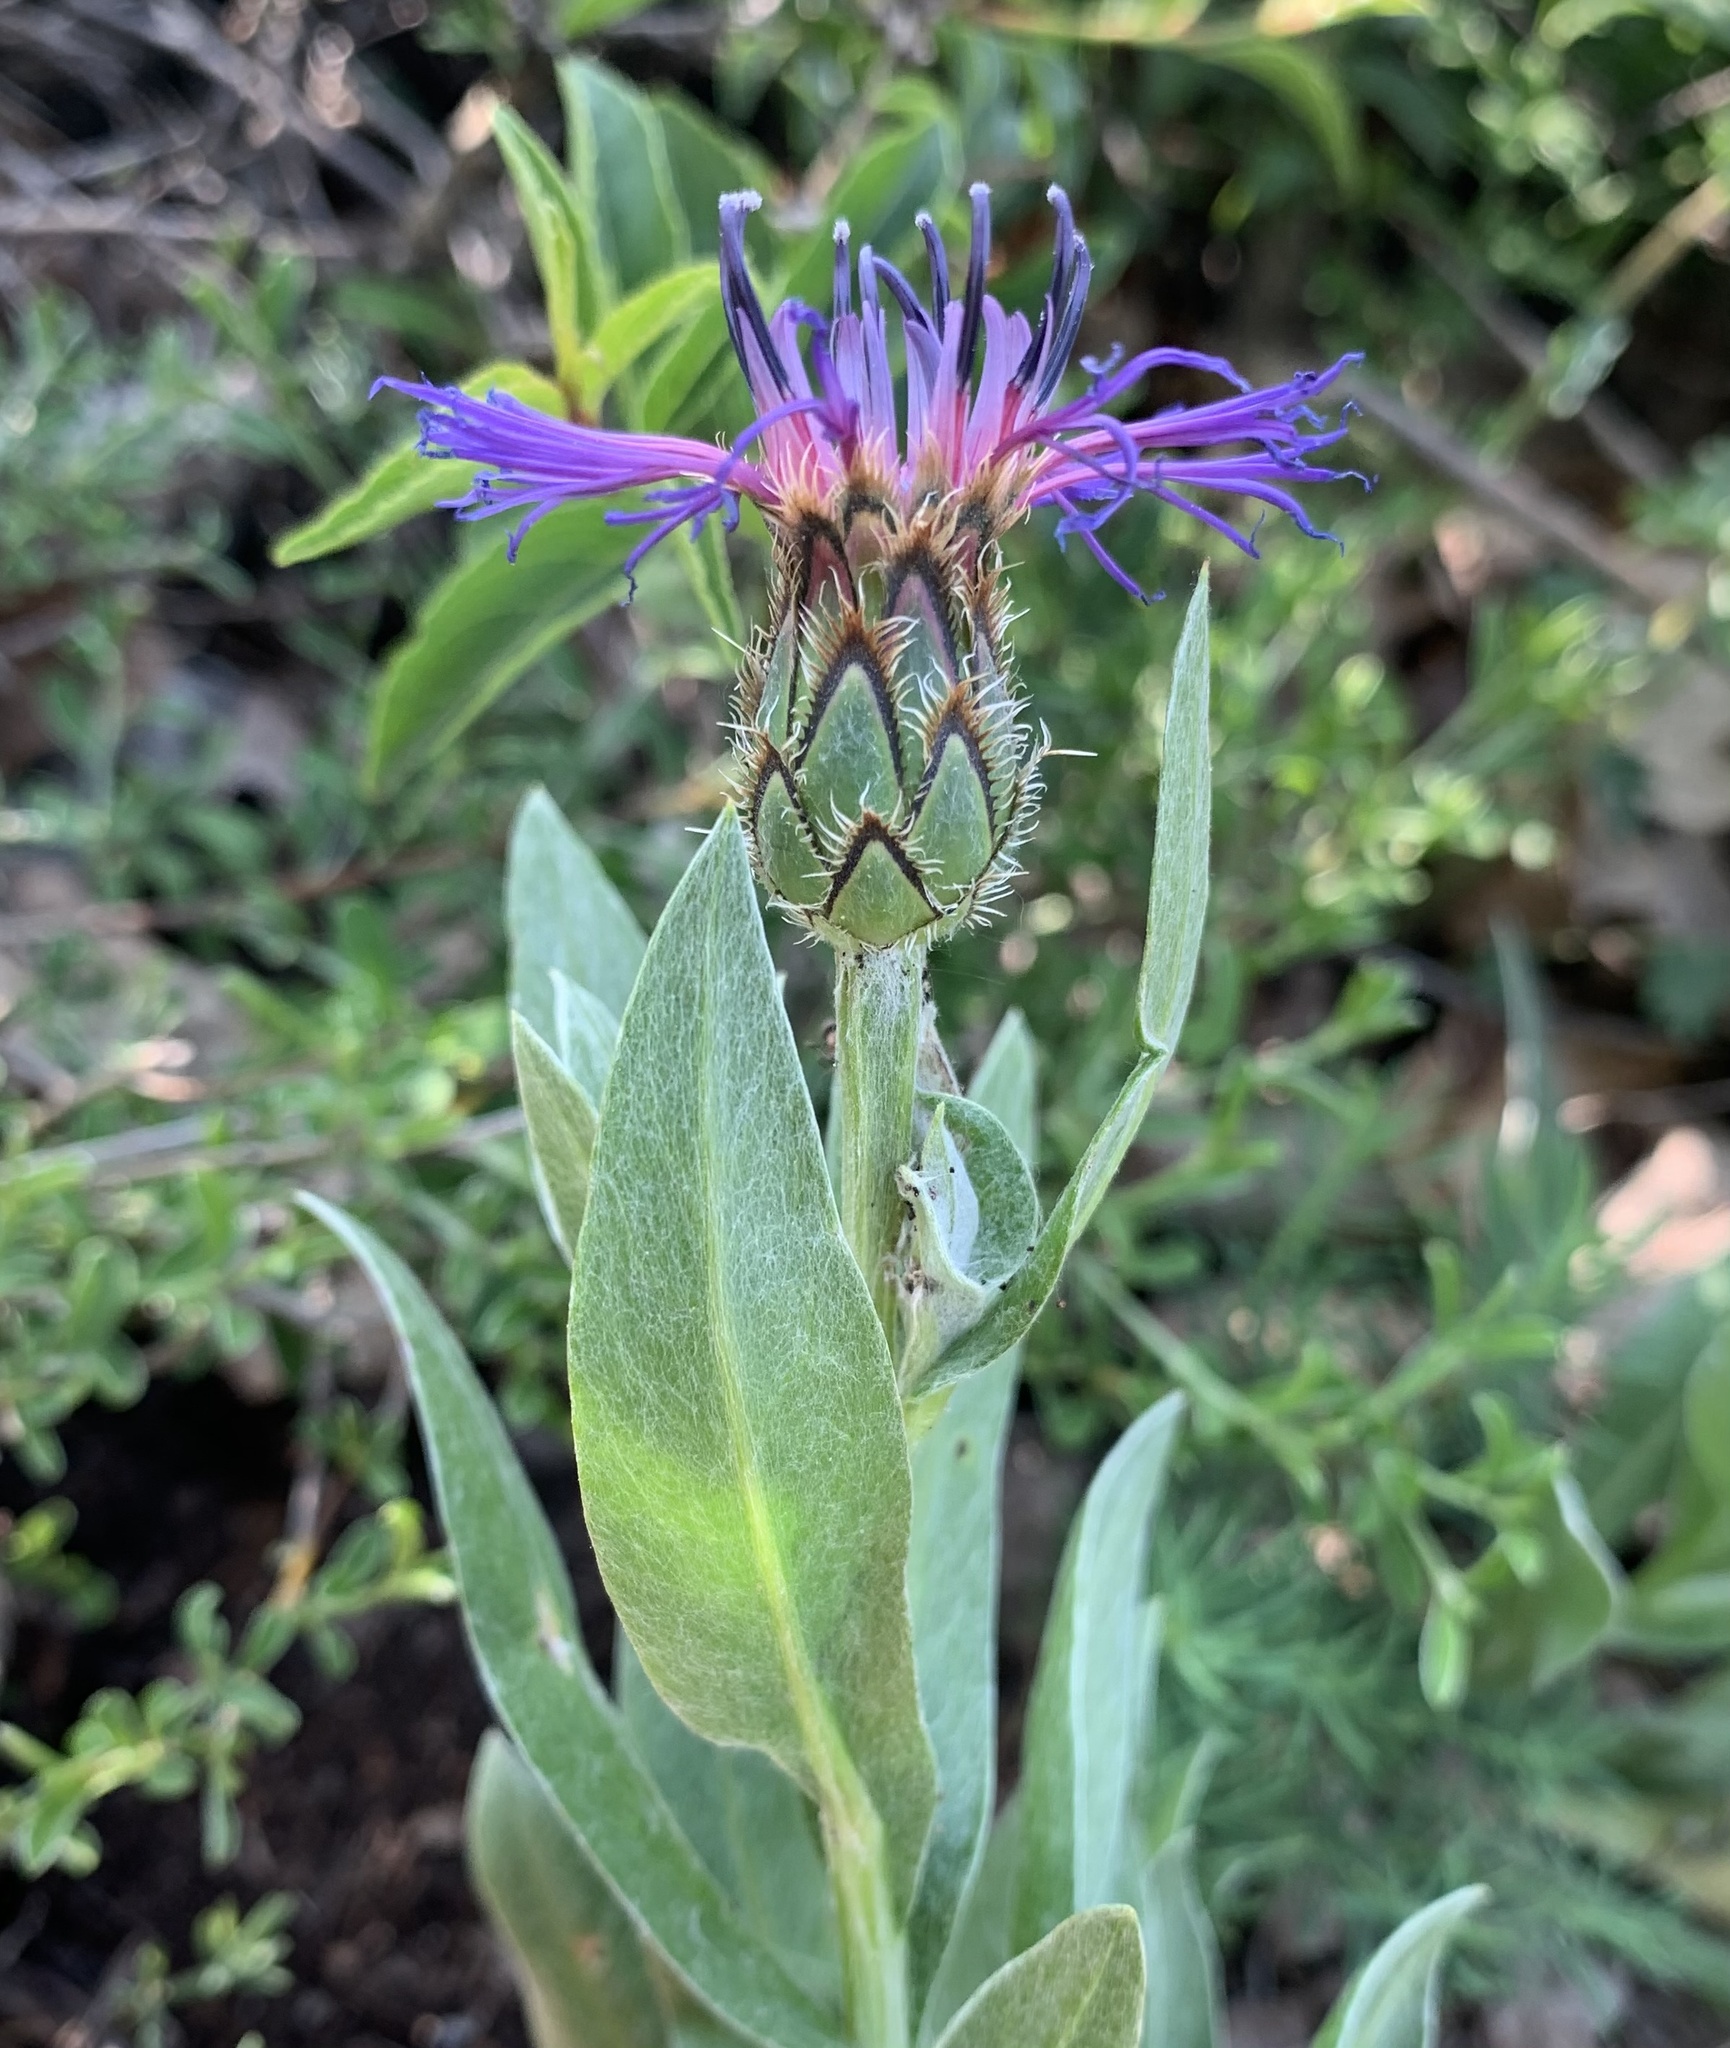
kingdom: Plantae
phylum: Tracheophyta
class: Magnoliopsida
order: Asterales
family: Asteraceae
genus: Centaurea
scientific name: Centaurea triumfettii
